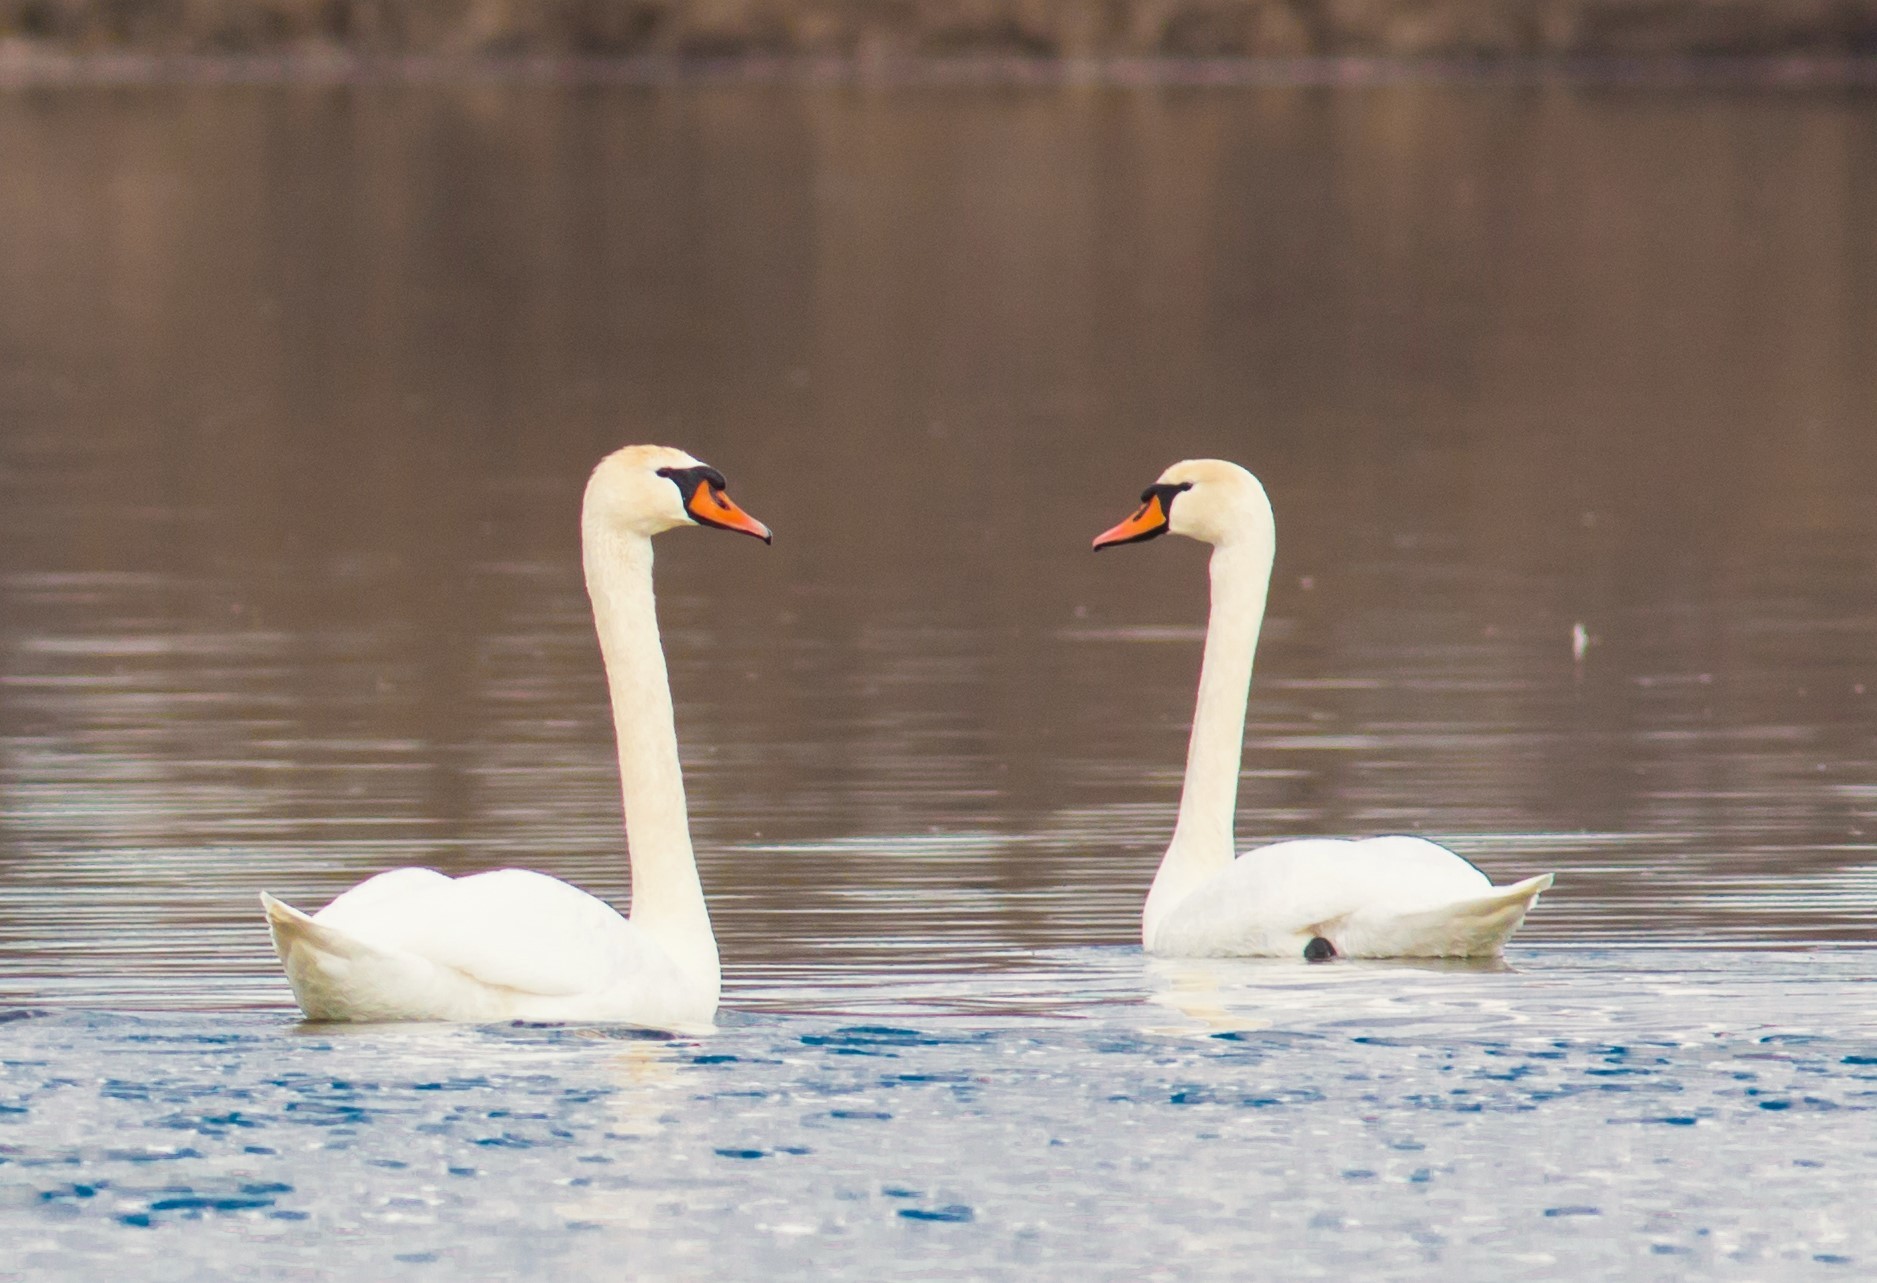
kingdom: Animalia
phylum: Chordata
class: Aves
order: Anseriformes
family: Anatidae
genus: Cygnus
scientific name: Cygnus olor
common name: Mute swan
